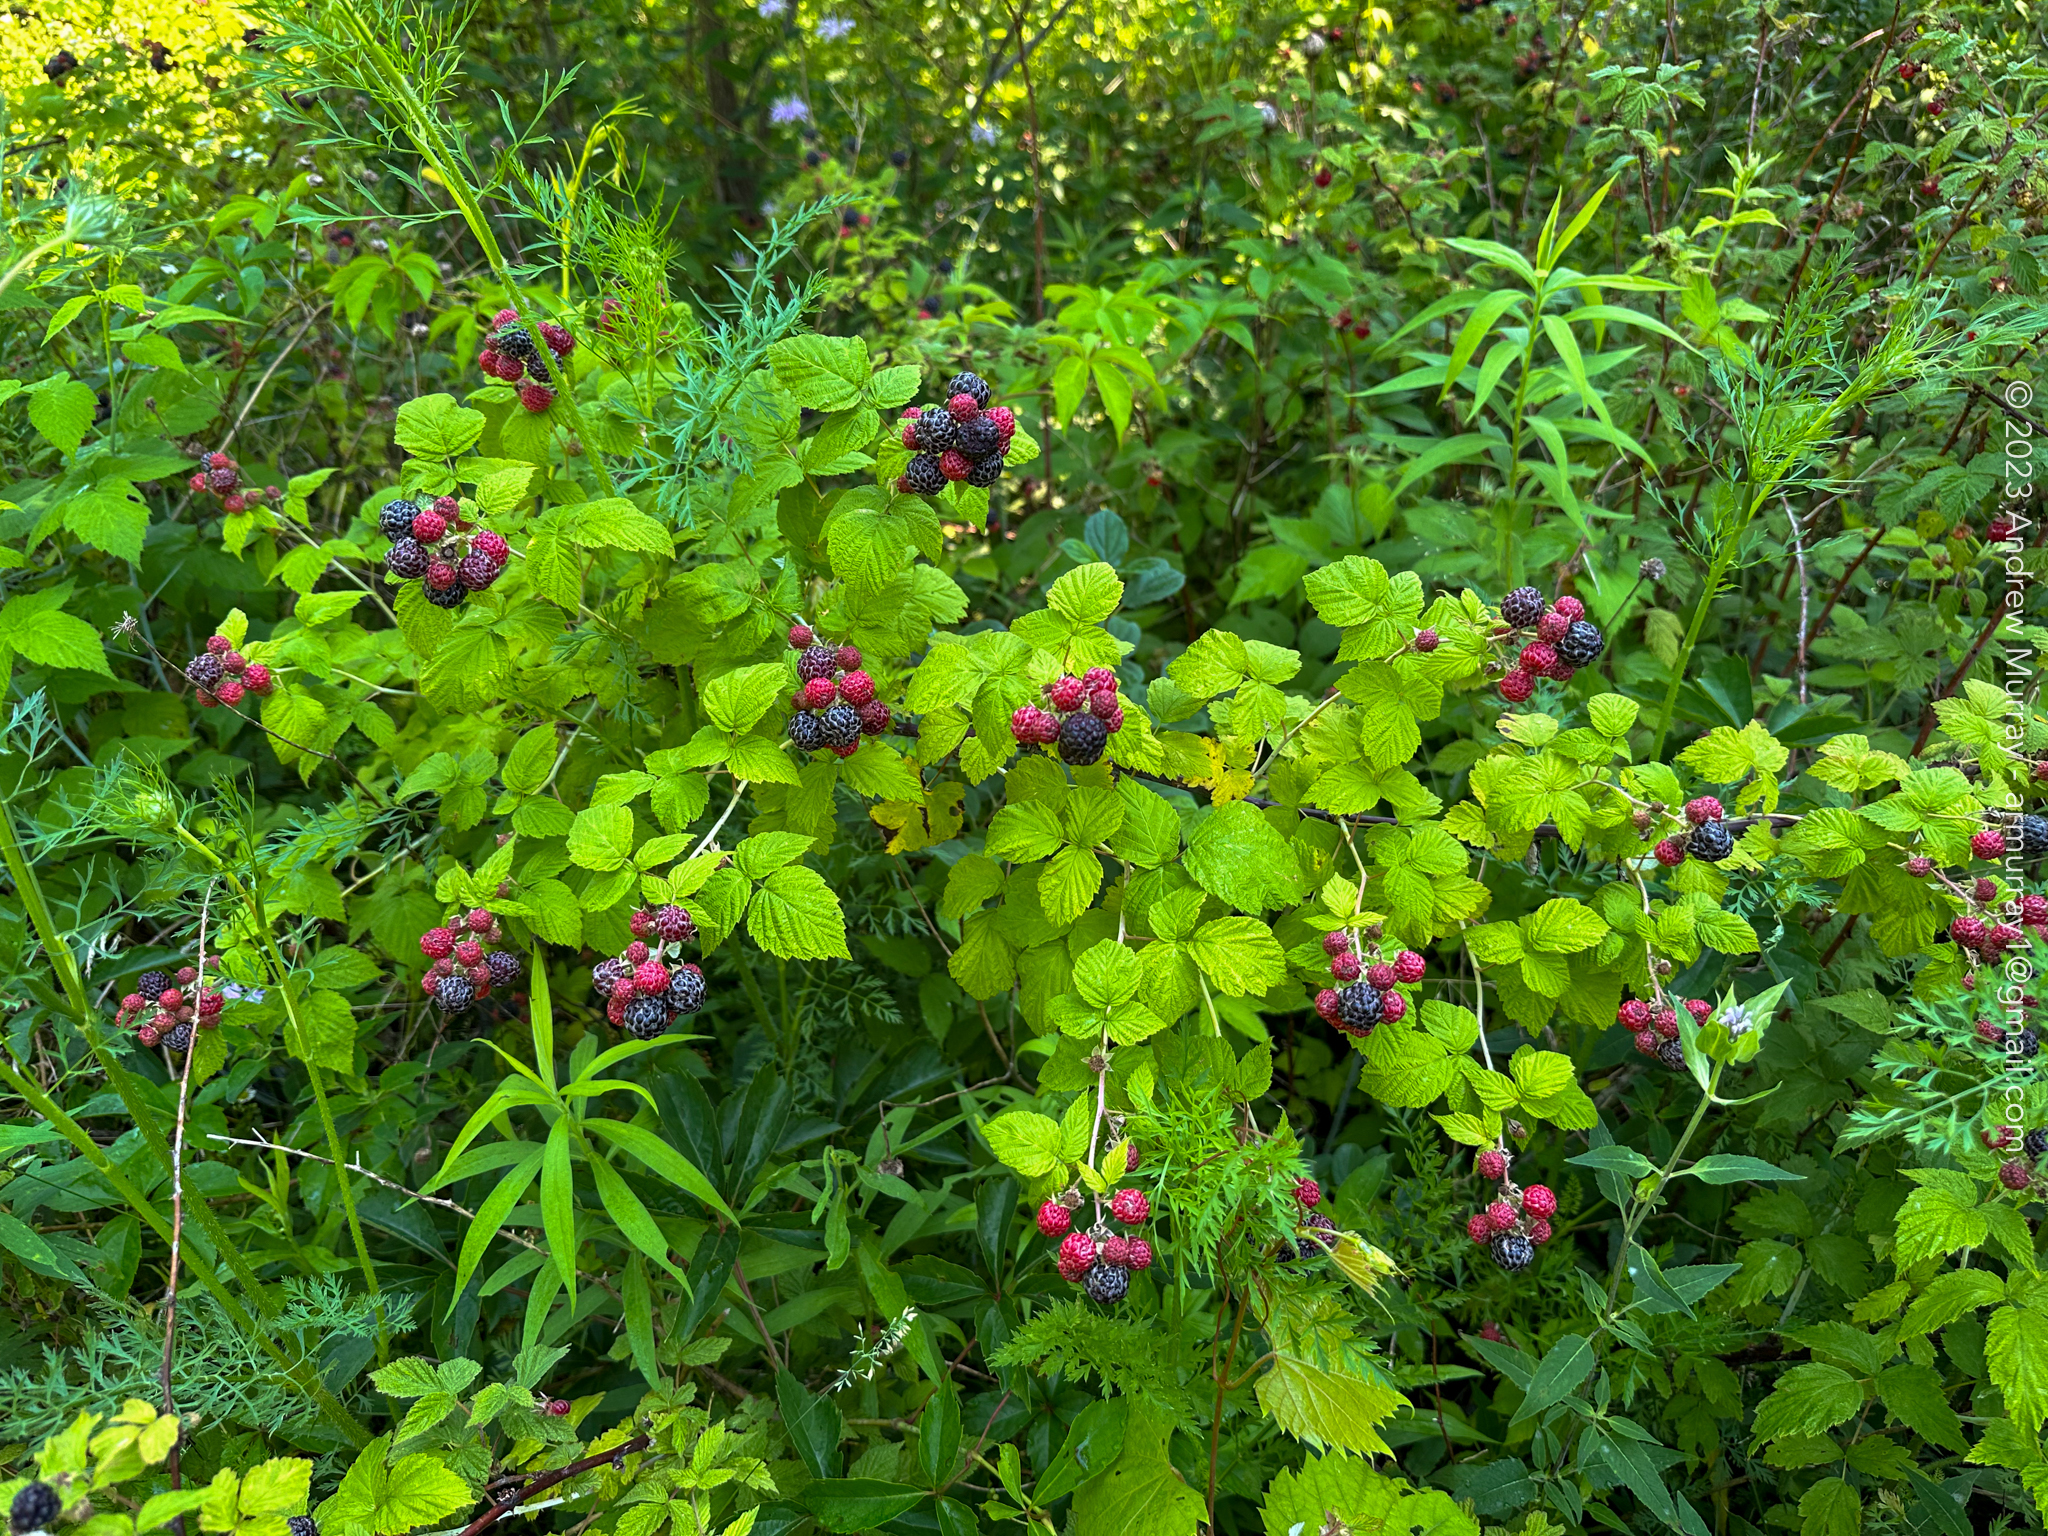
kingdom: Plantae
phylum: Tracheophyta
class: Magnoliopsida
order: Rosales
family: Rosaceae
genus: Rubus
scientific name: Rubus occidentalis
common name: Black raspberry
